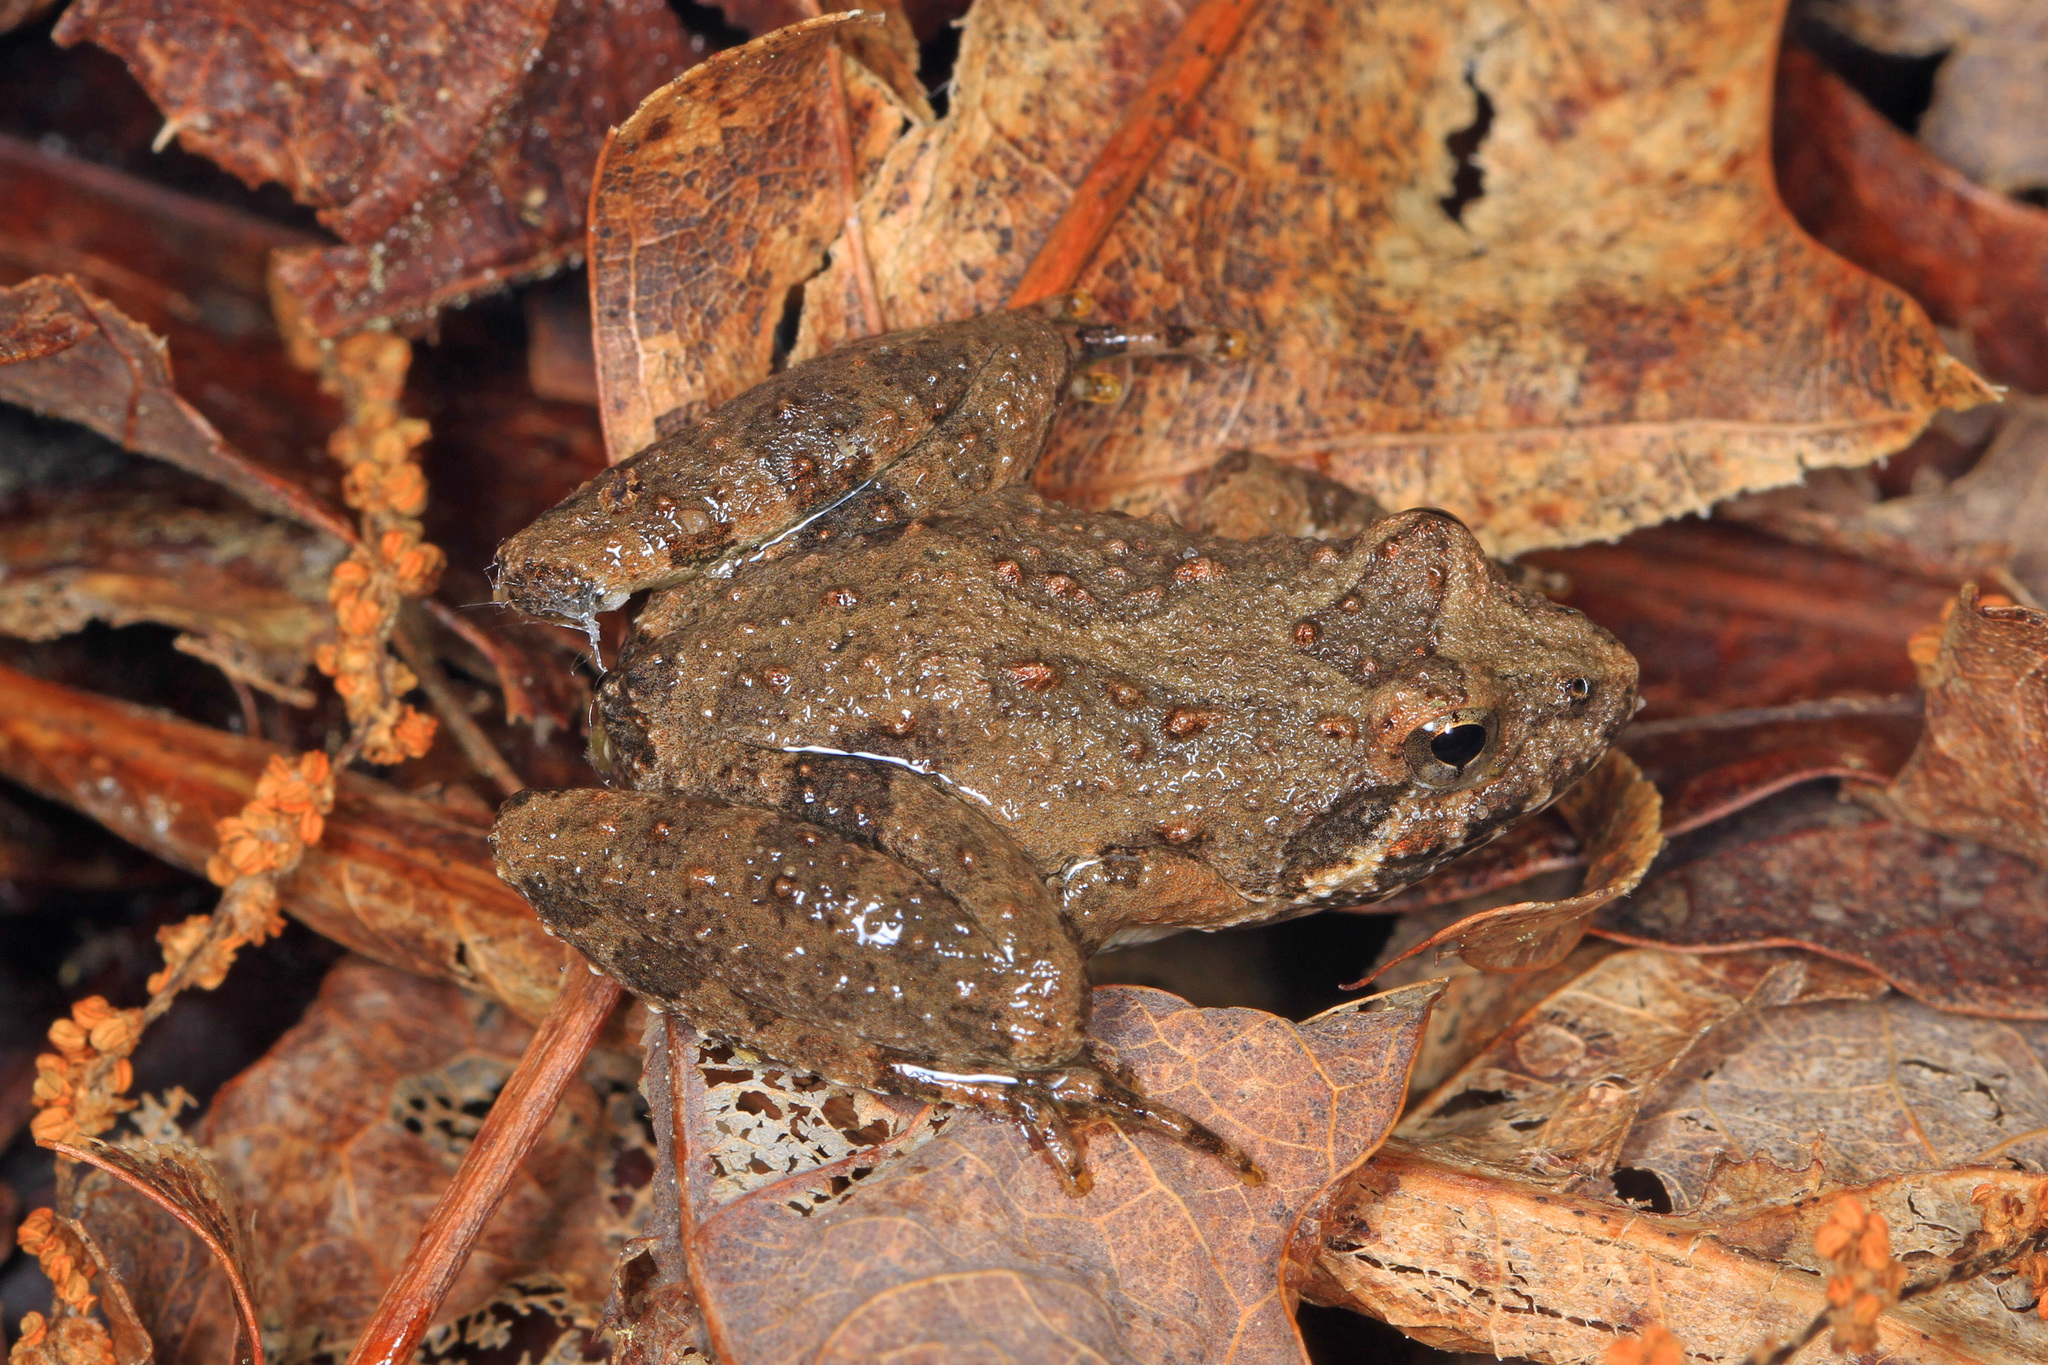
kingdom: Animalia
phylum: Chordata
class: Amphibia
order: Anura
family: Hylidae
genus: Acris
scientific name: Acris blanchardi
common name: Blanchard's cricket frog
